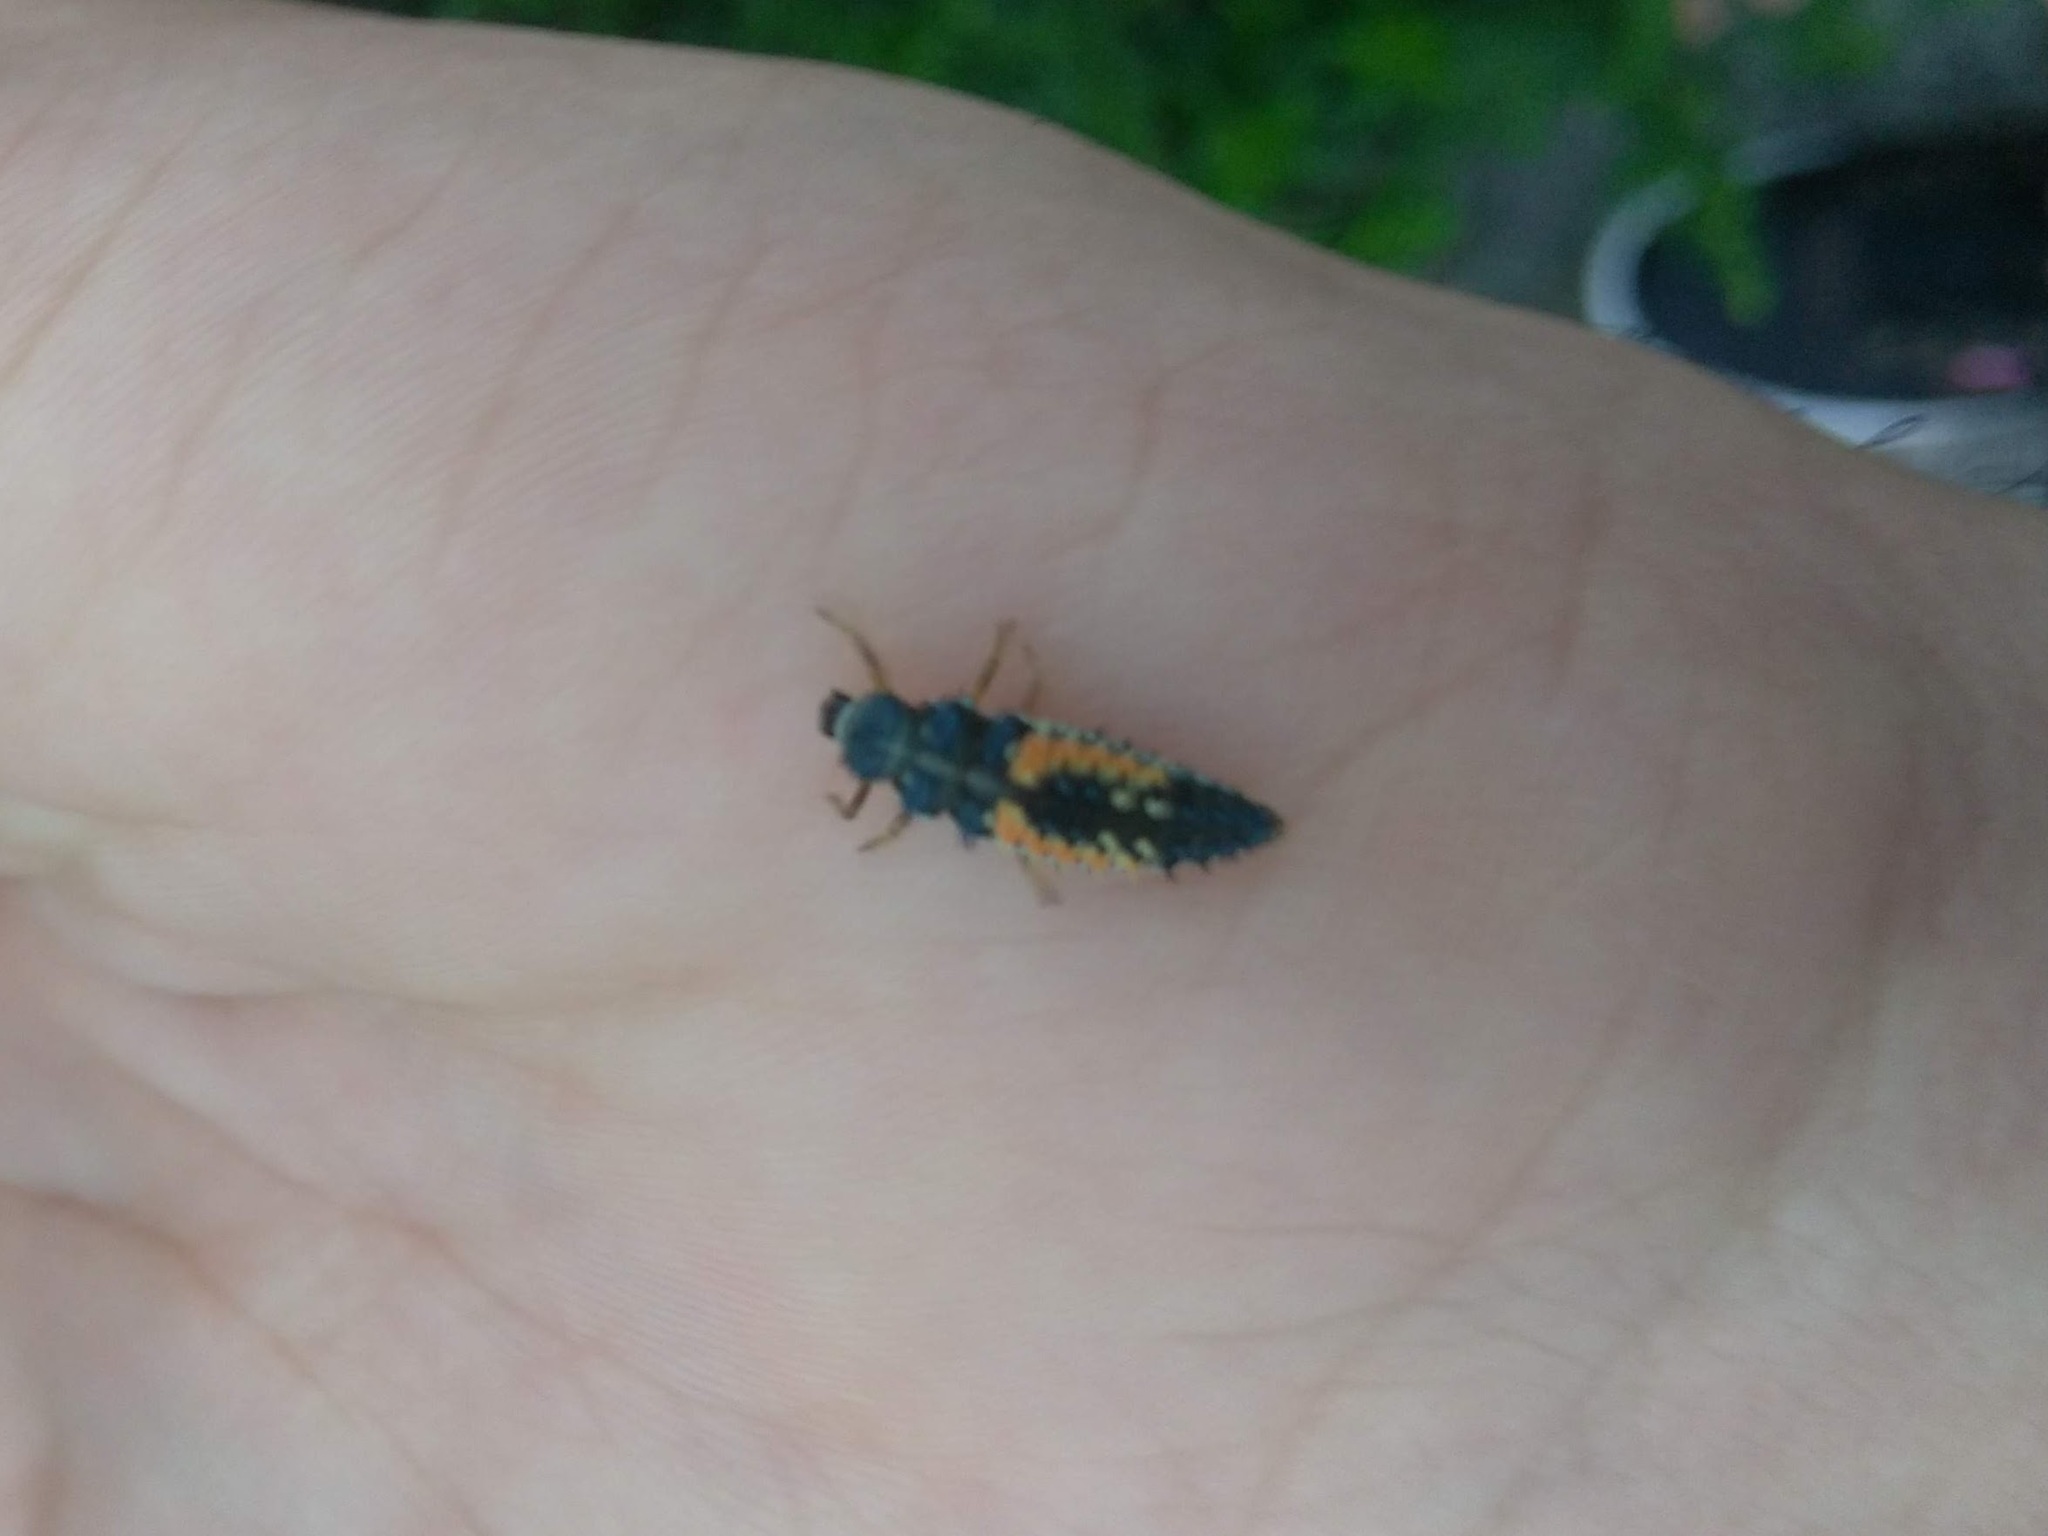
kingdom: Animalia
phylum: Arthropoda
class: Insecta
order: Coleoptera
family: Coccinellidae
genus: Harmonia
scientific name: Harmonia axyridis
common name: Harlequin ladybird
